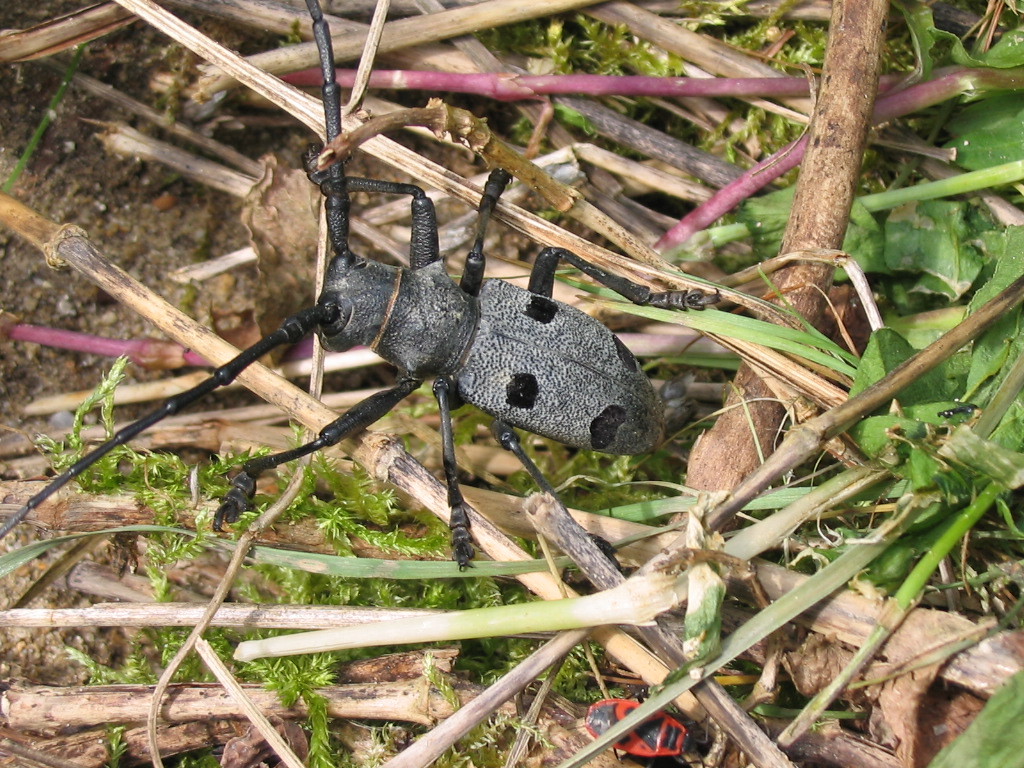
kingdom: Animalia
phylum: Arthropoda
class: Insecta
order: Coleoptera
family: Cerambycidae
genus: Morimus
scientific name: Morimus funereus
